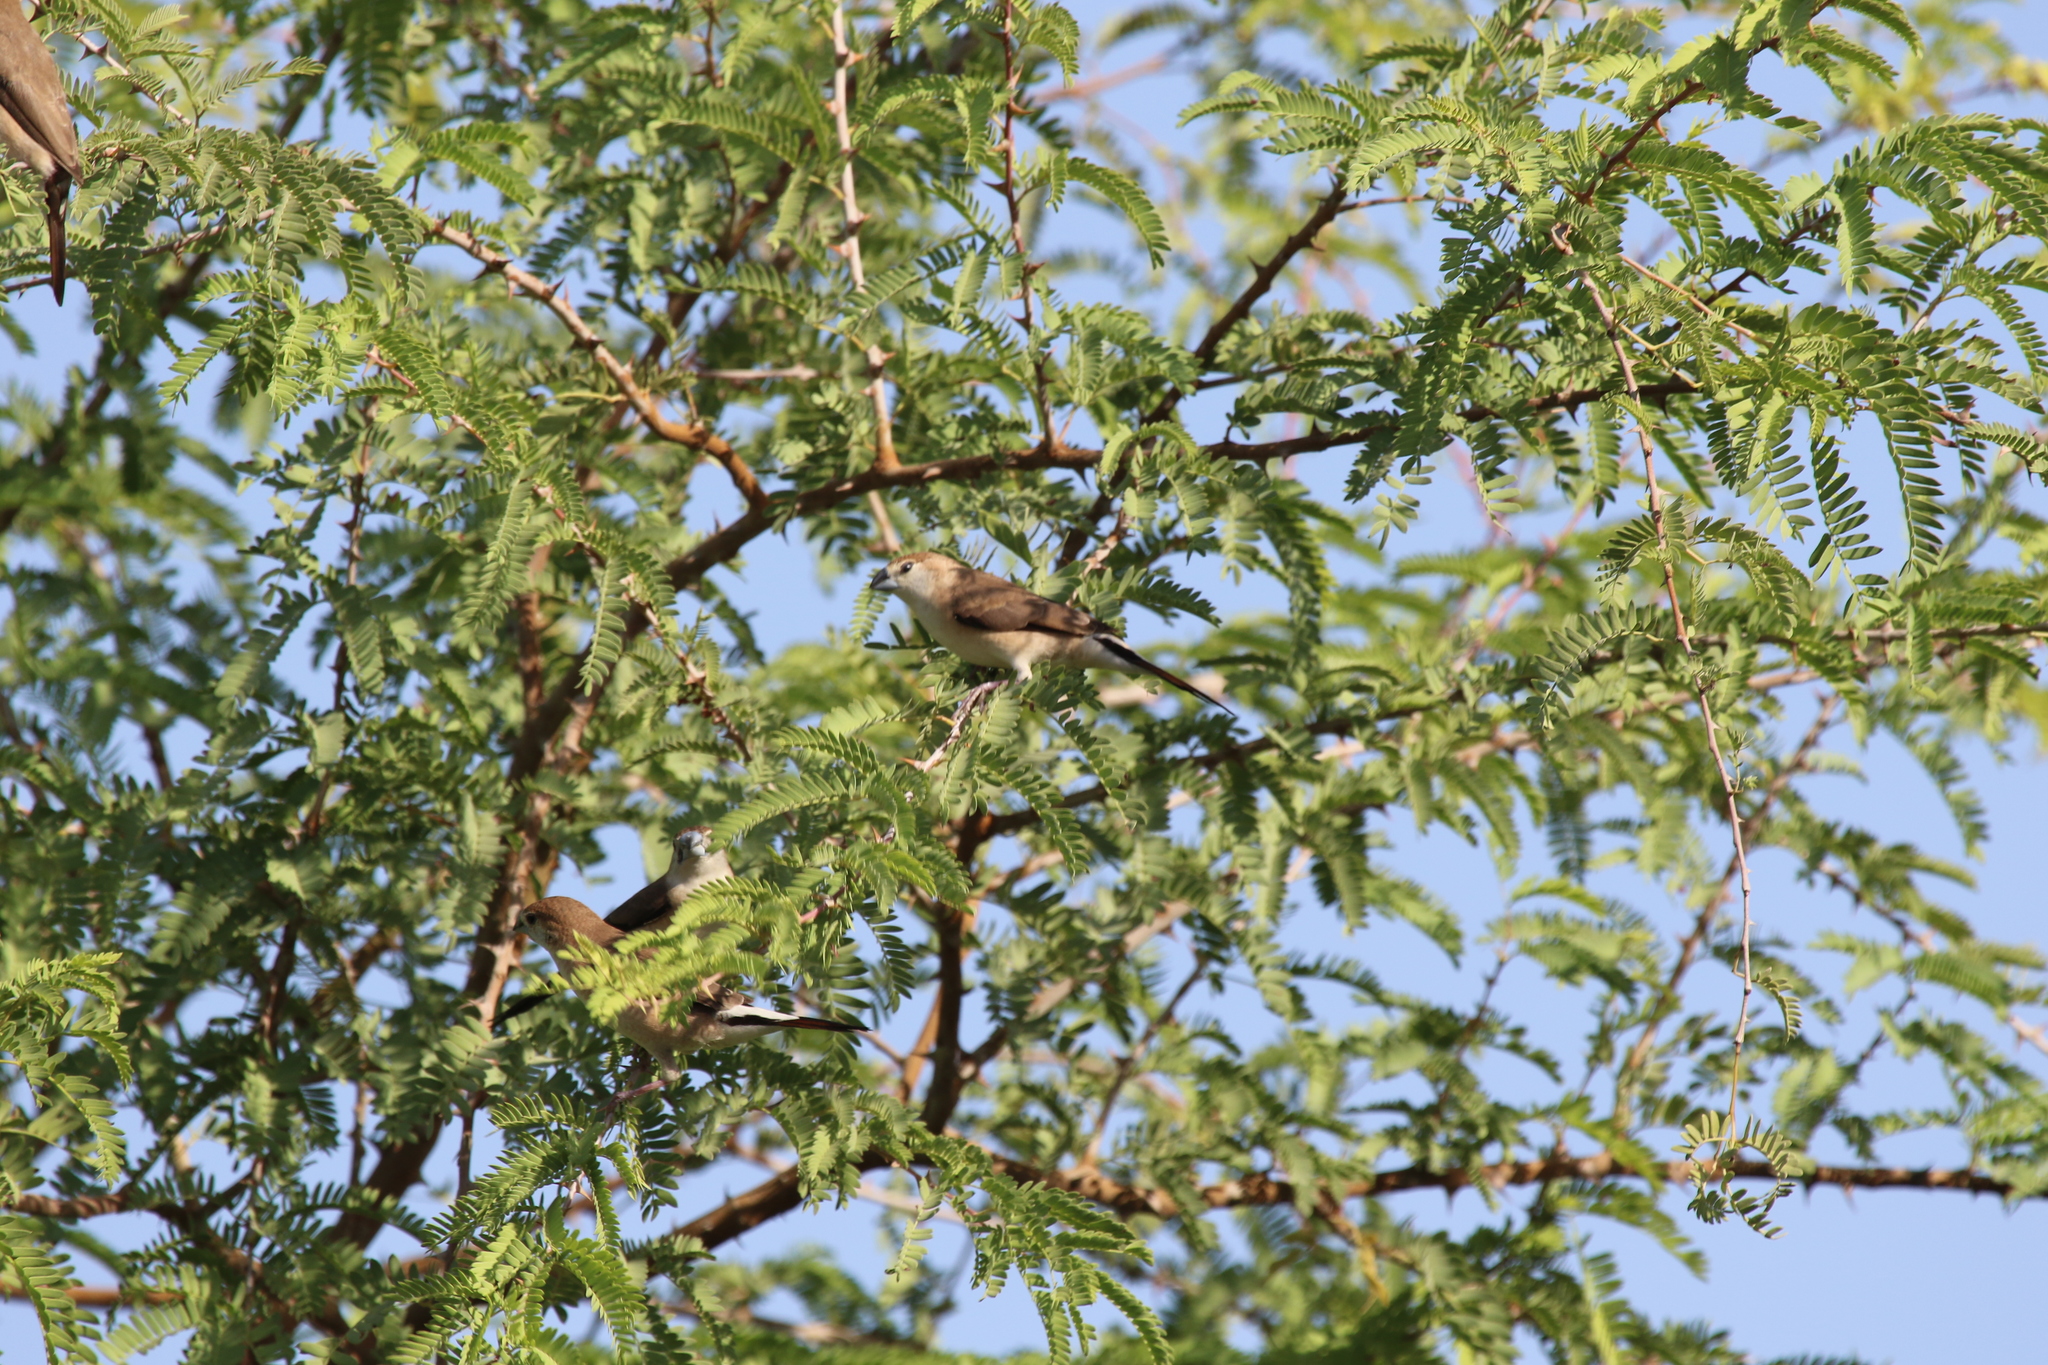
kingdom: Animalia
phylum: Chordata
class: Aves
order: Passeriformes
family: Estrildidae
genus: Euodice
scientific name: Euodice malabarica
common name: Indian silverbill
